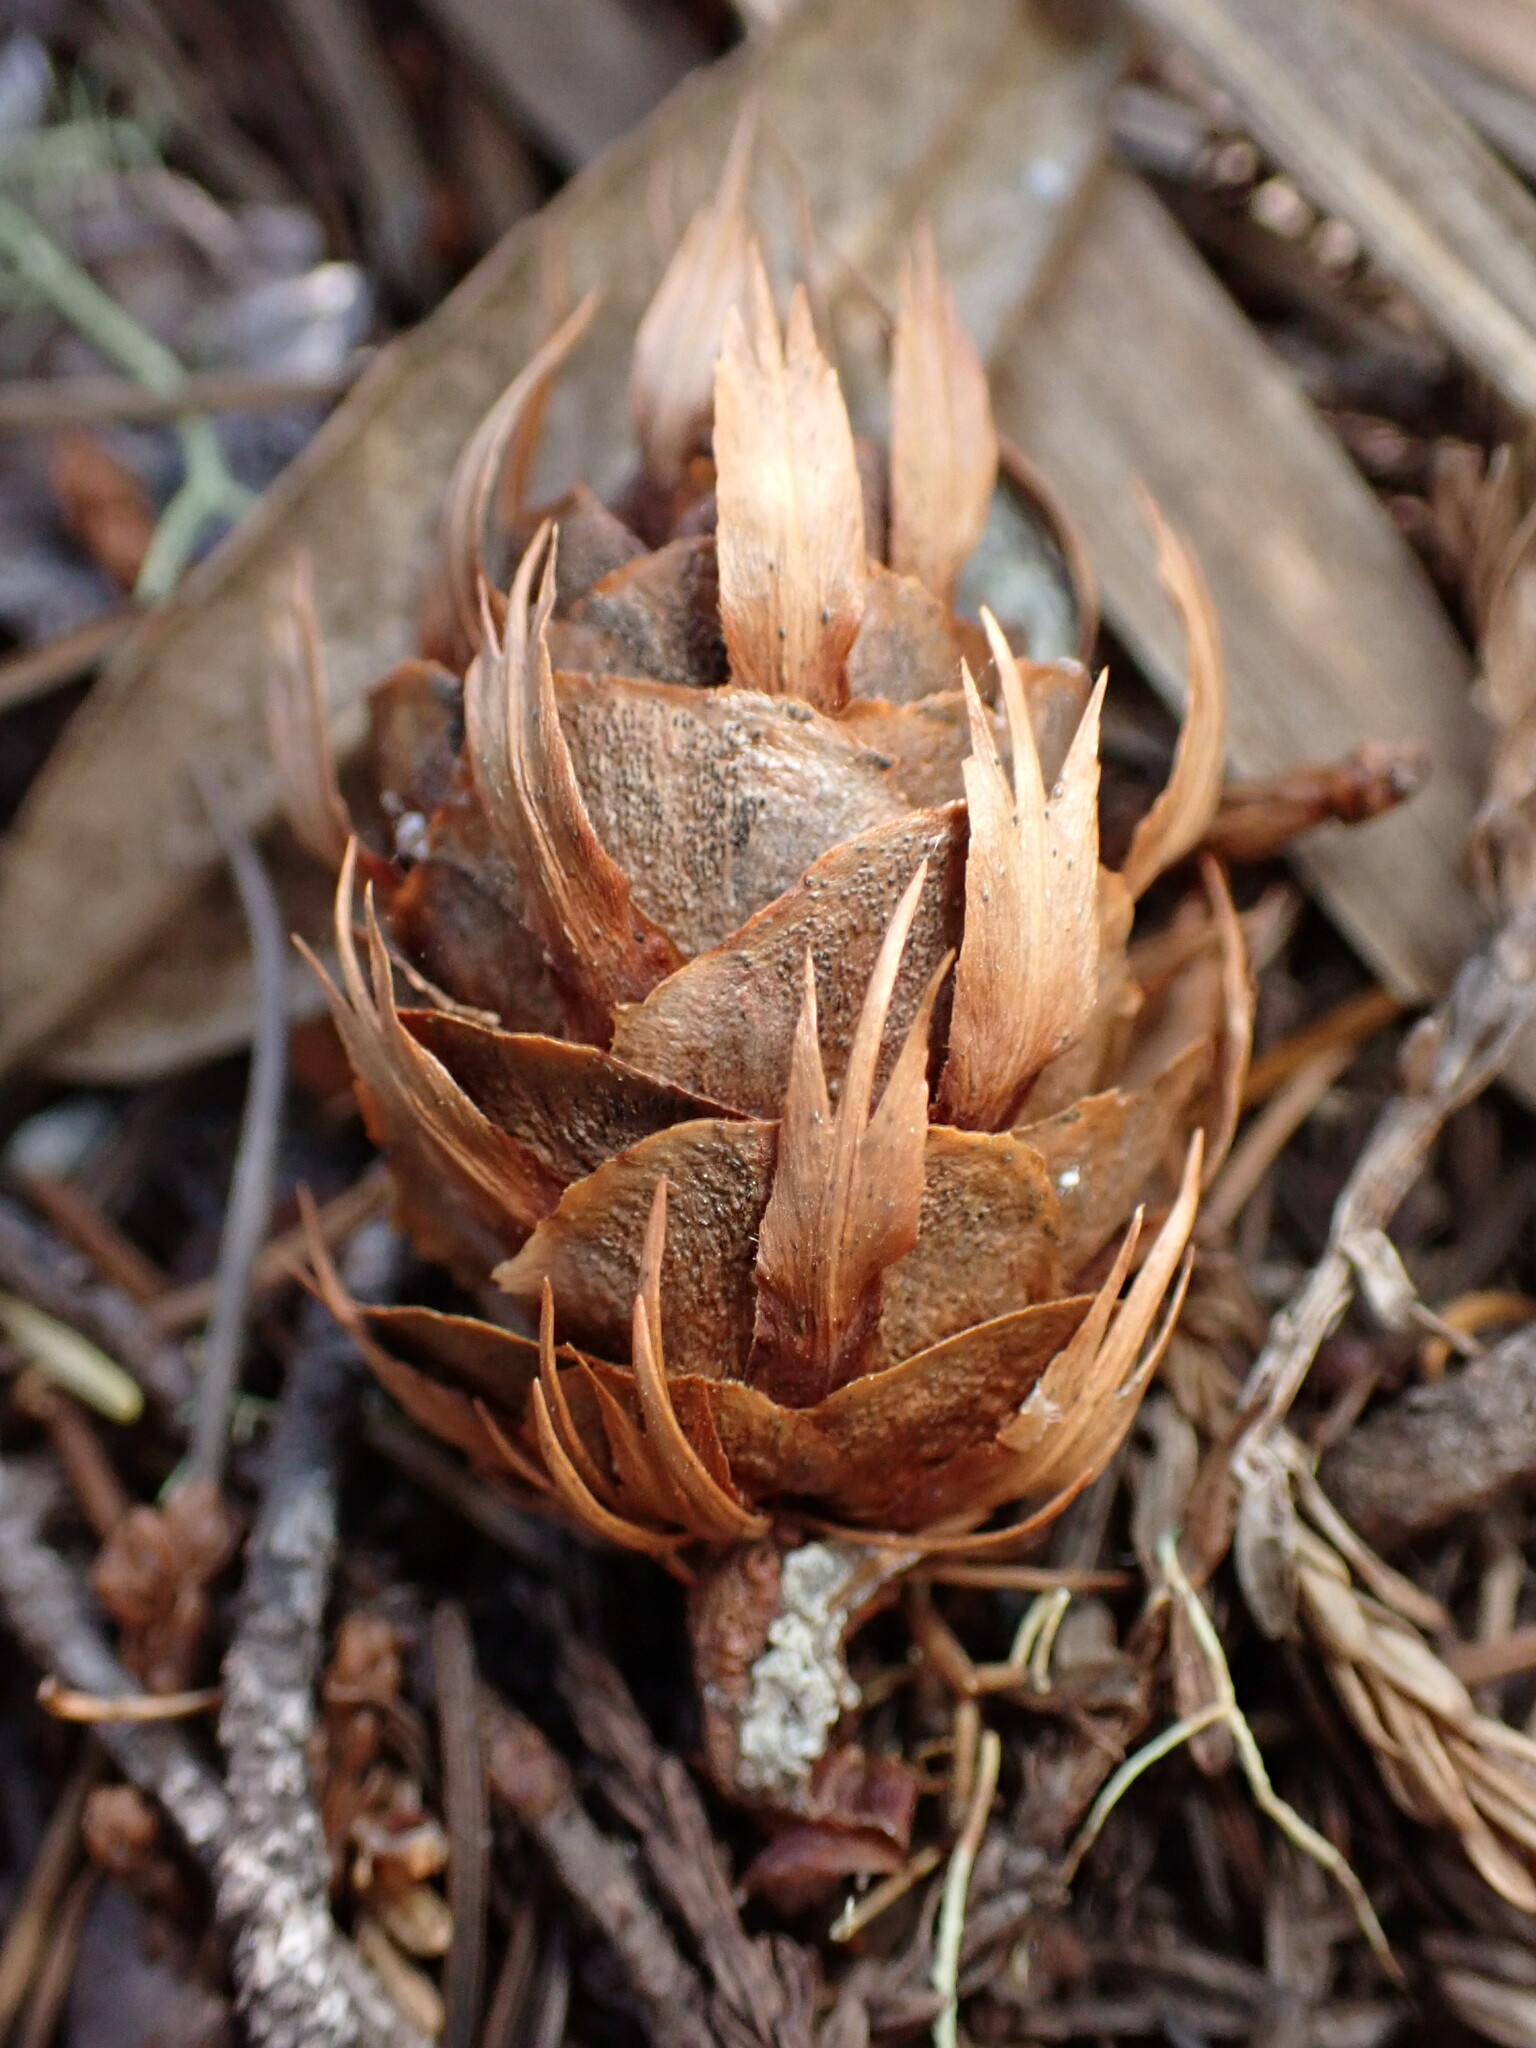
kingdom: Plantae
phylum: Tracheophyta
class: Pinopsida
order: Pinales
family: Pinaceae
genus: Pseudotsuga
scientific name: Pseudotsuga menziesii
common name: Douglas fir
